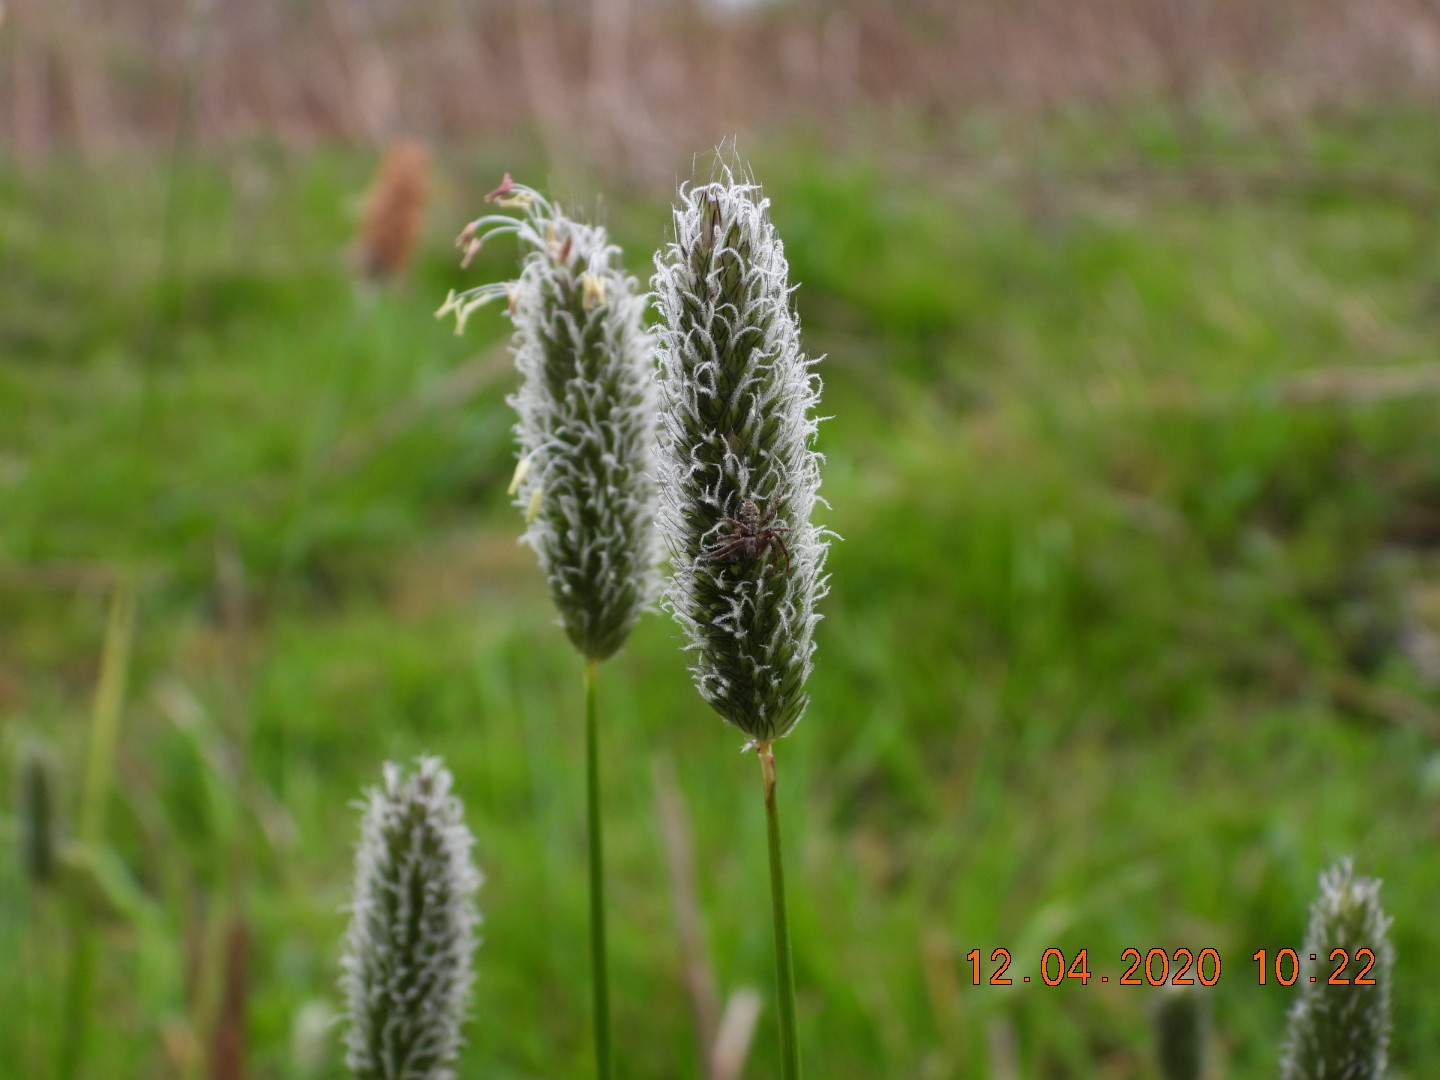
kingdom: Plantae
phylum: Tracheophyta
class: Liliopsida
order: Poales
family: Poaceae
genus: Alopecurus
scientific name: Alopecurus pratensis
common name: Meadow foxtail
